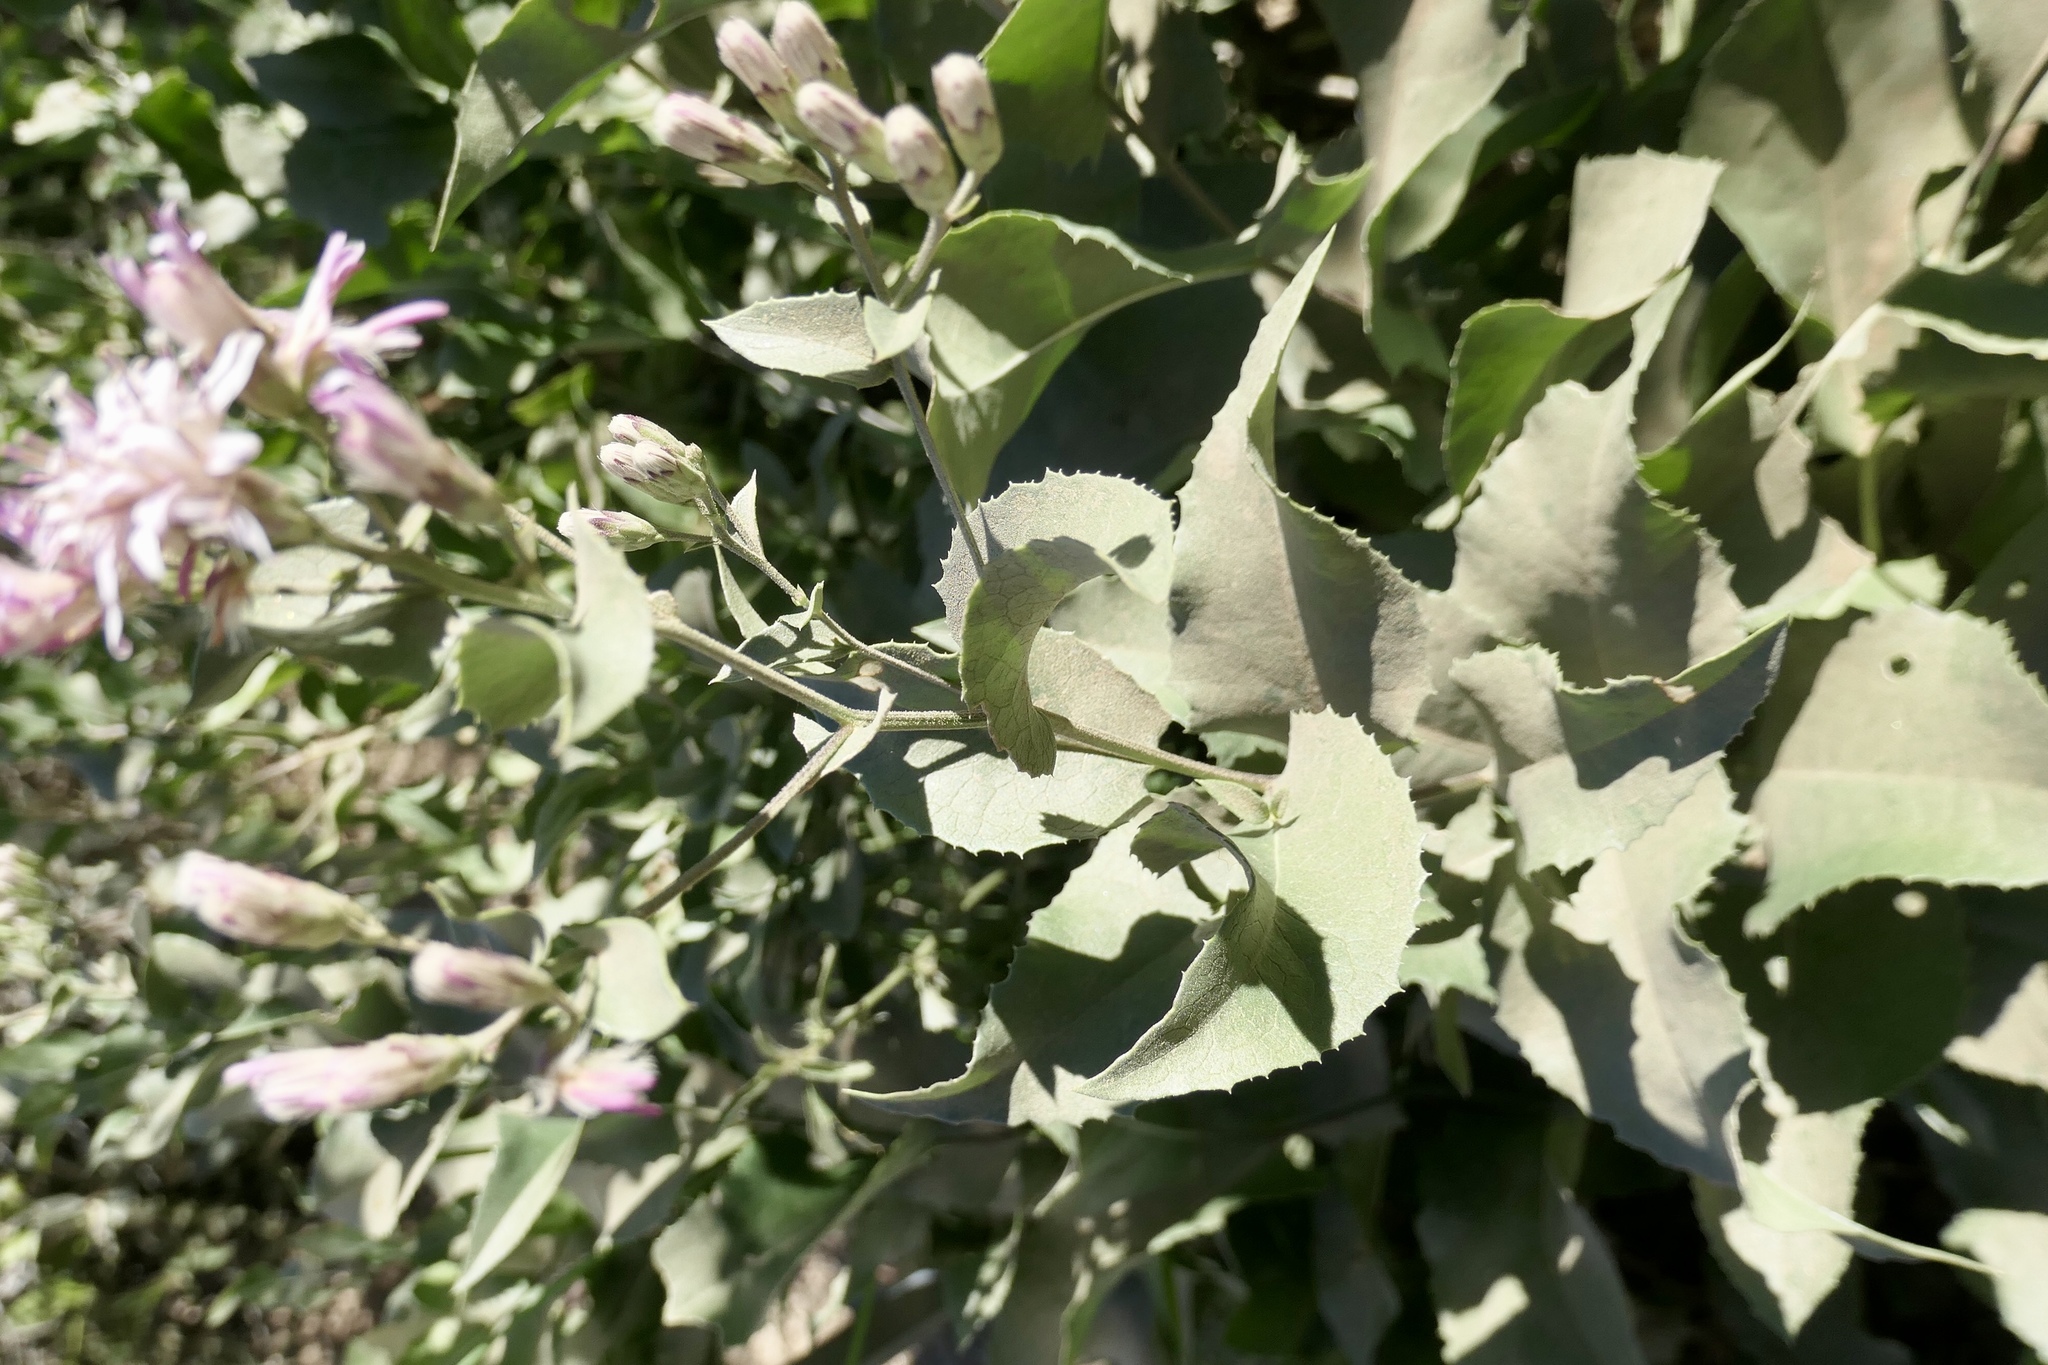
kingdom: Plantae
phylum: Tracheophyta
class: Magnoliopsida
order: Asterales
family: Asteraceae
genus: Acourtia
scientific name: Acourtia wrightii
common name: Brownfoot
